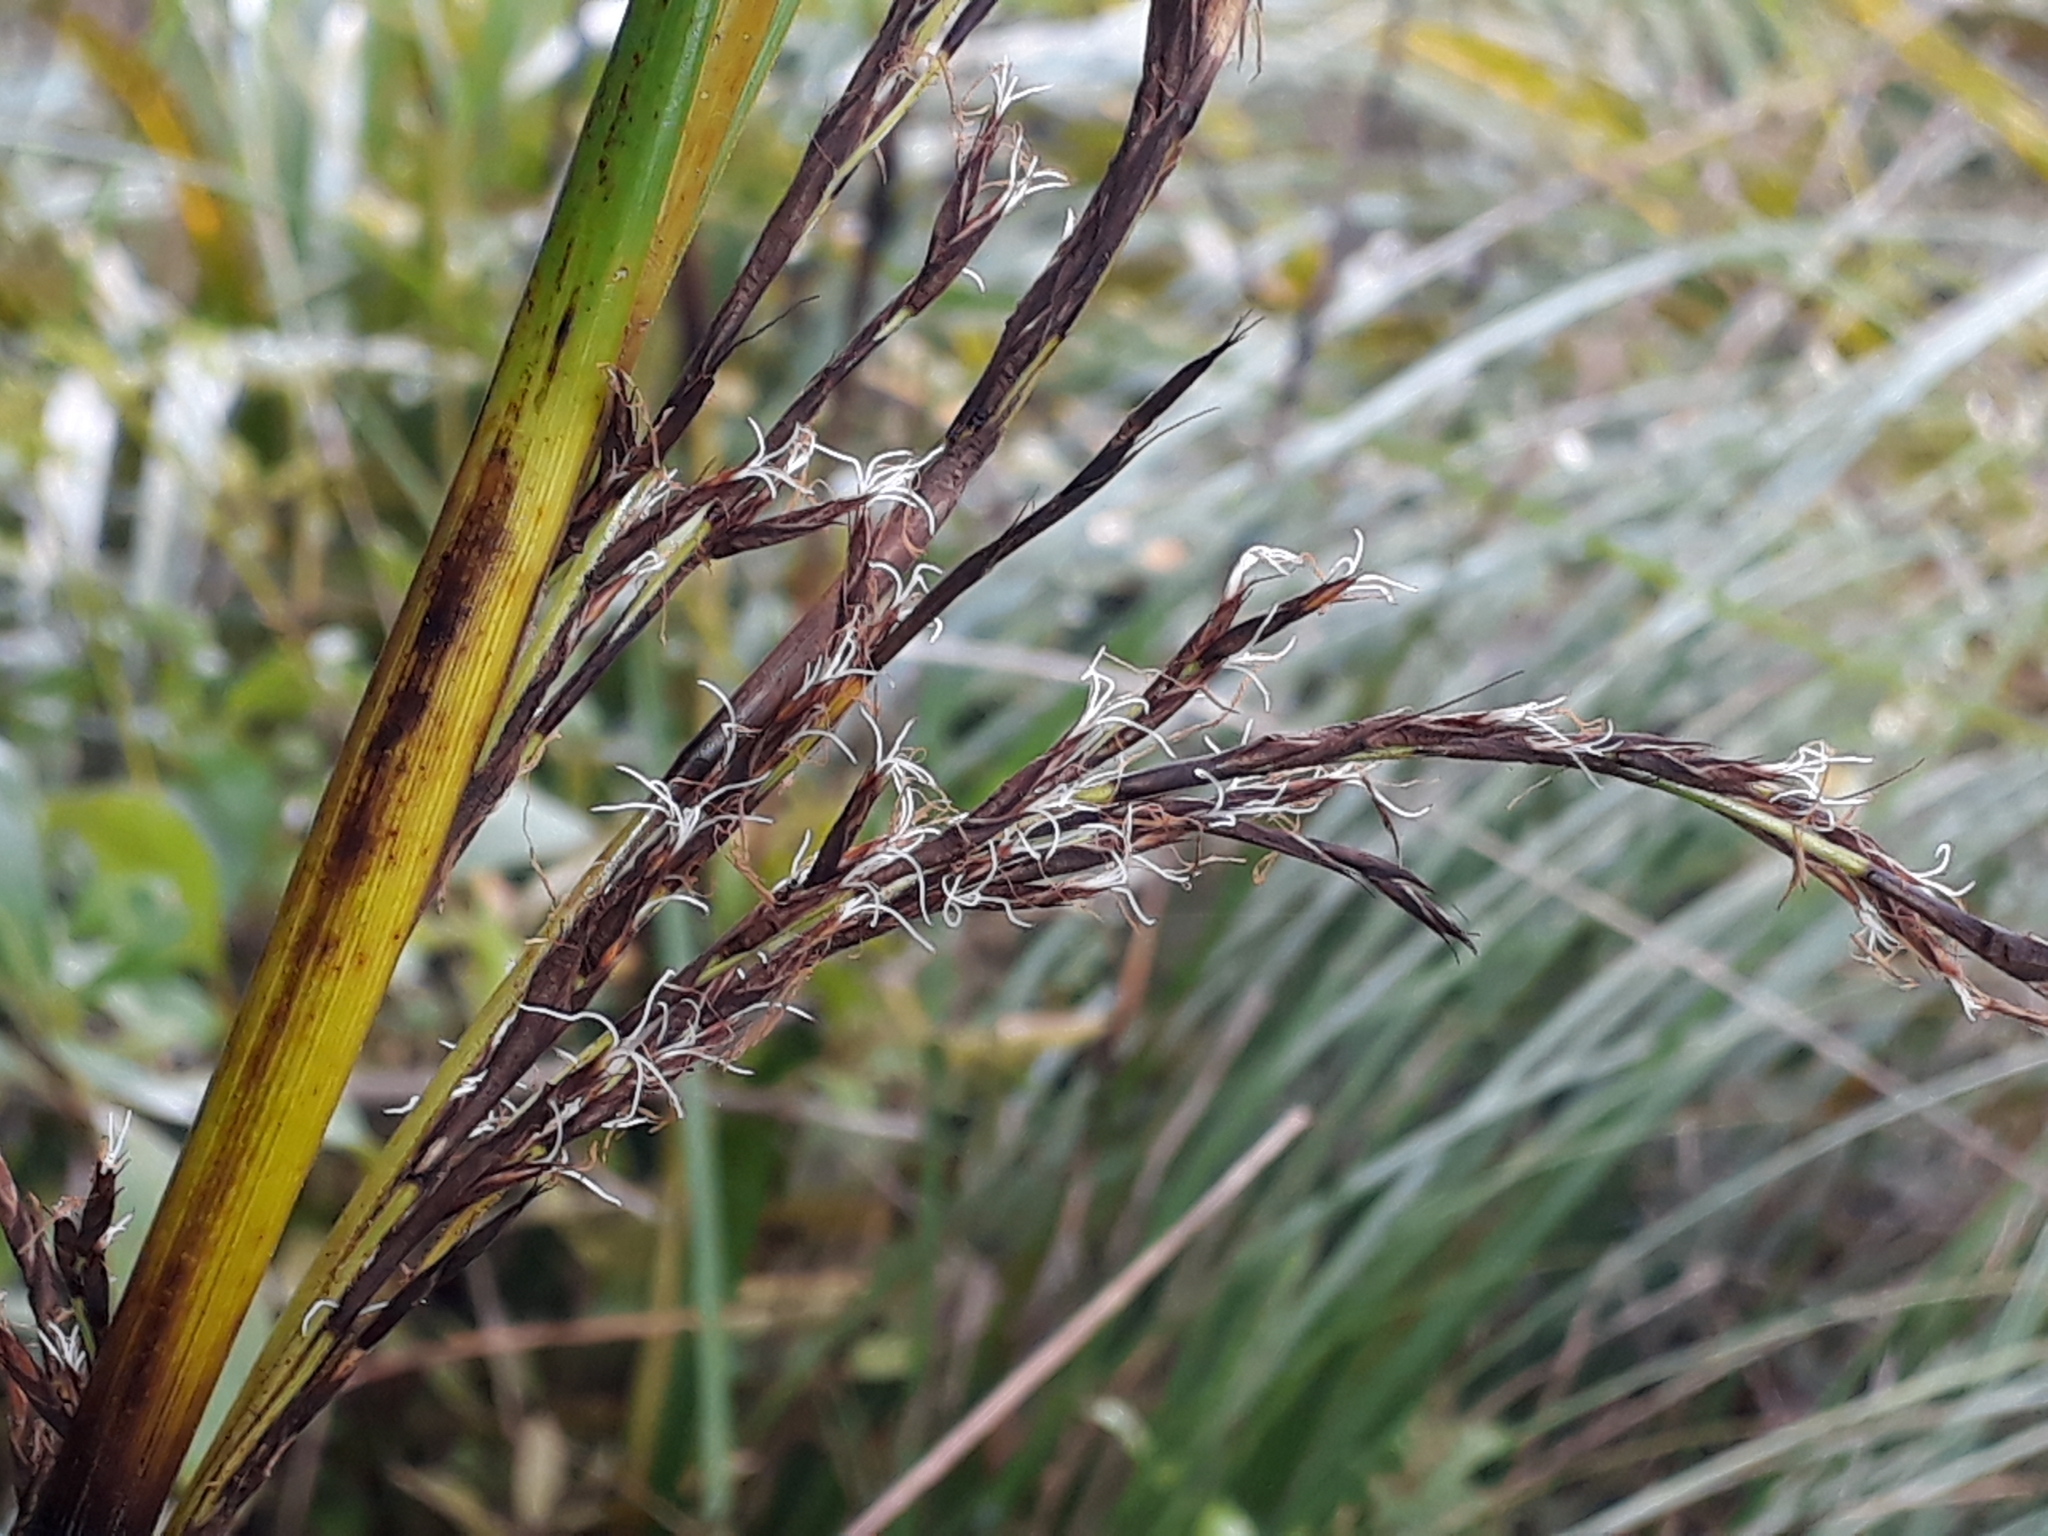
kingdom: Plantae
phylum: Tracheophyta
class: Liliopsida
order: Poales
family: Cyperaceae
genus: Gahnia
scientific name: Gahnia setifolia
